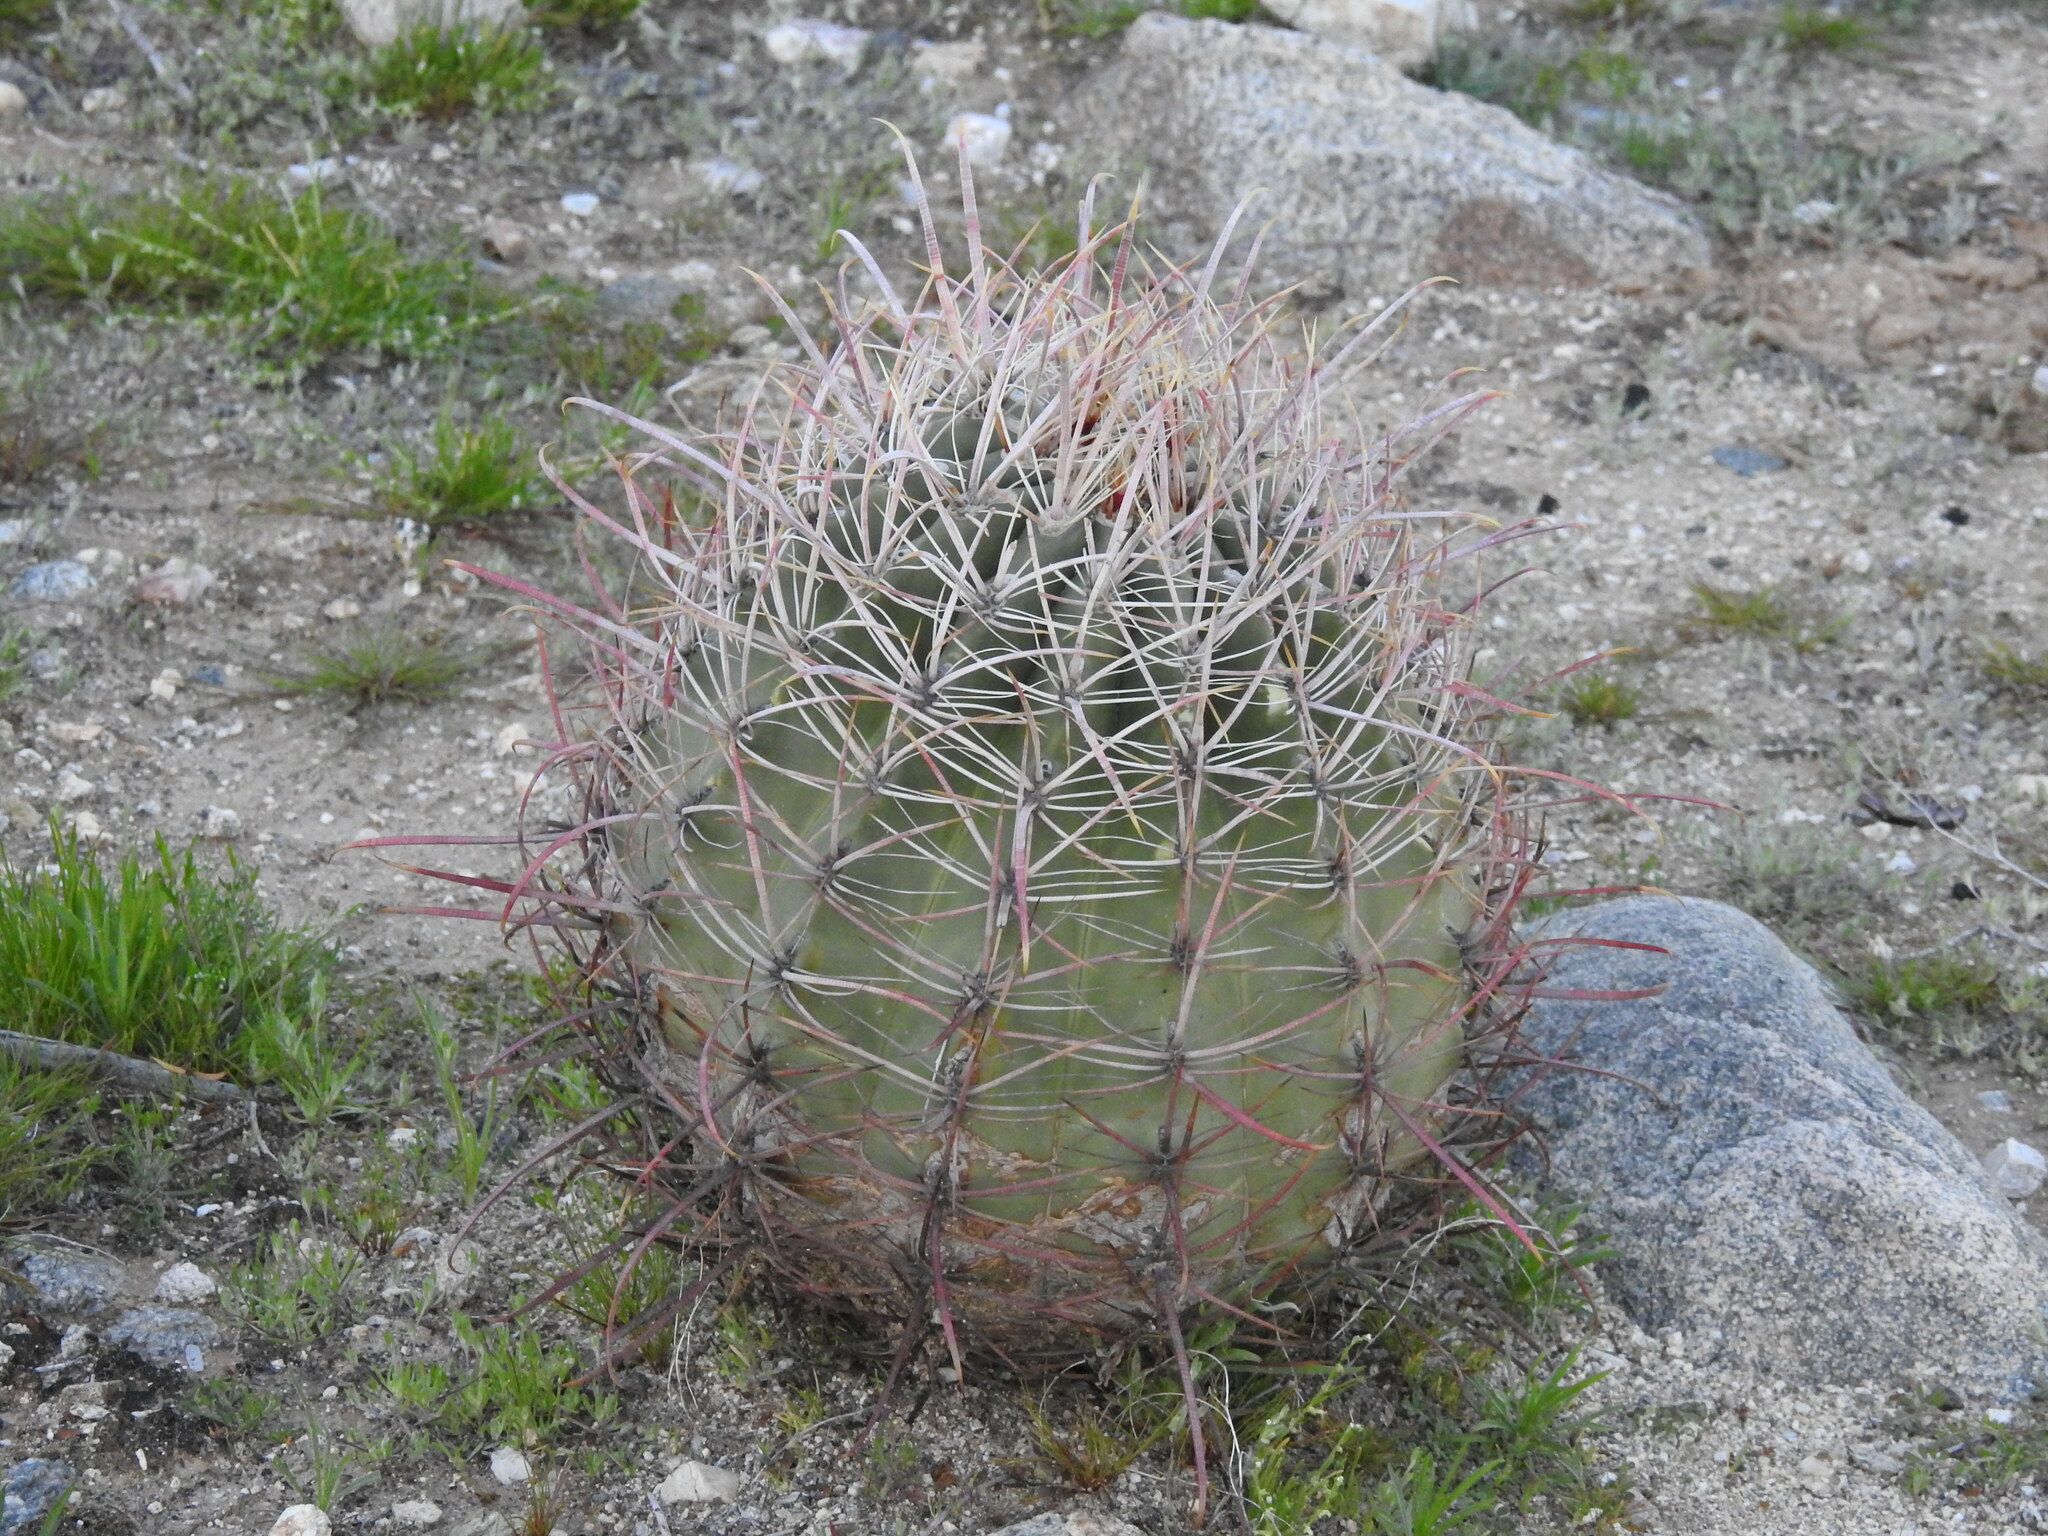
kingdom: Plantae
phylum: Tracheophyta
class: Magnoliopsida
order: Caryophyllales
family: Cactaceae
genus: Ferocactus
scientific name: Ferocactus cylindraceus
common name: California barrel cactus
